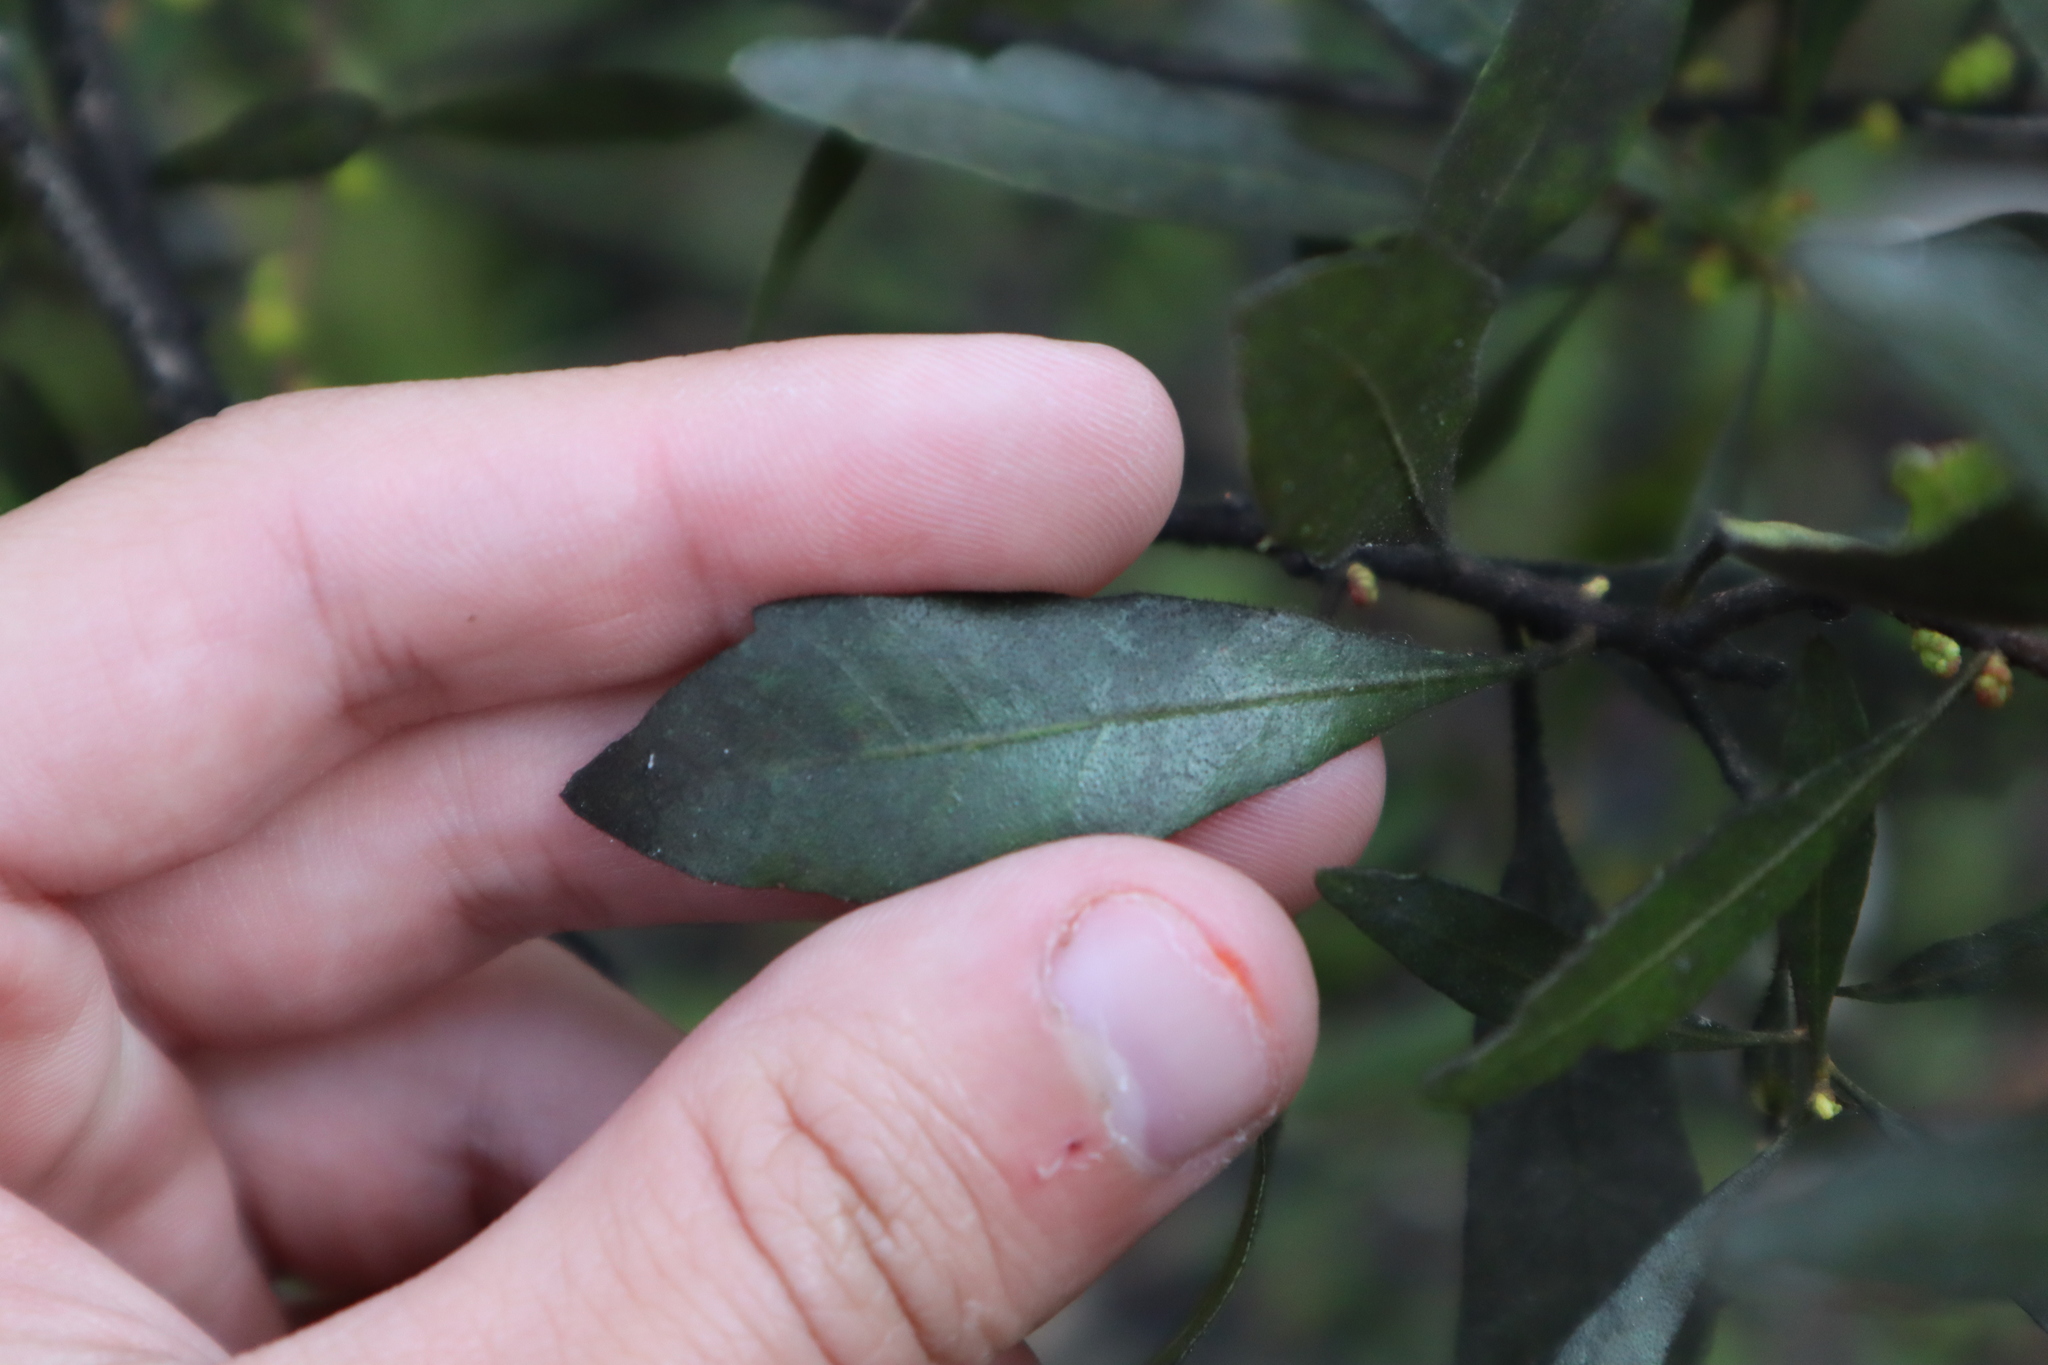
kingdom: Plantae
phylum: Tracheophyta
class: Magnoliopsida
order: Fagales
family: Myricaceae
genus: Morella
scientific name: Morella cerifera
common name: Wax myrtle
